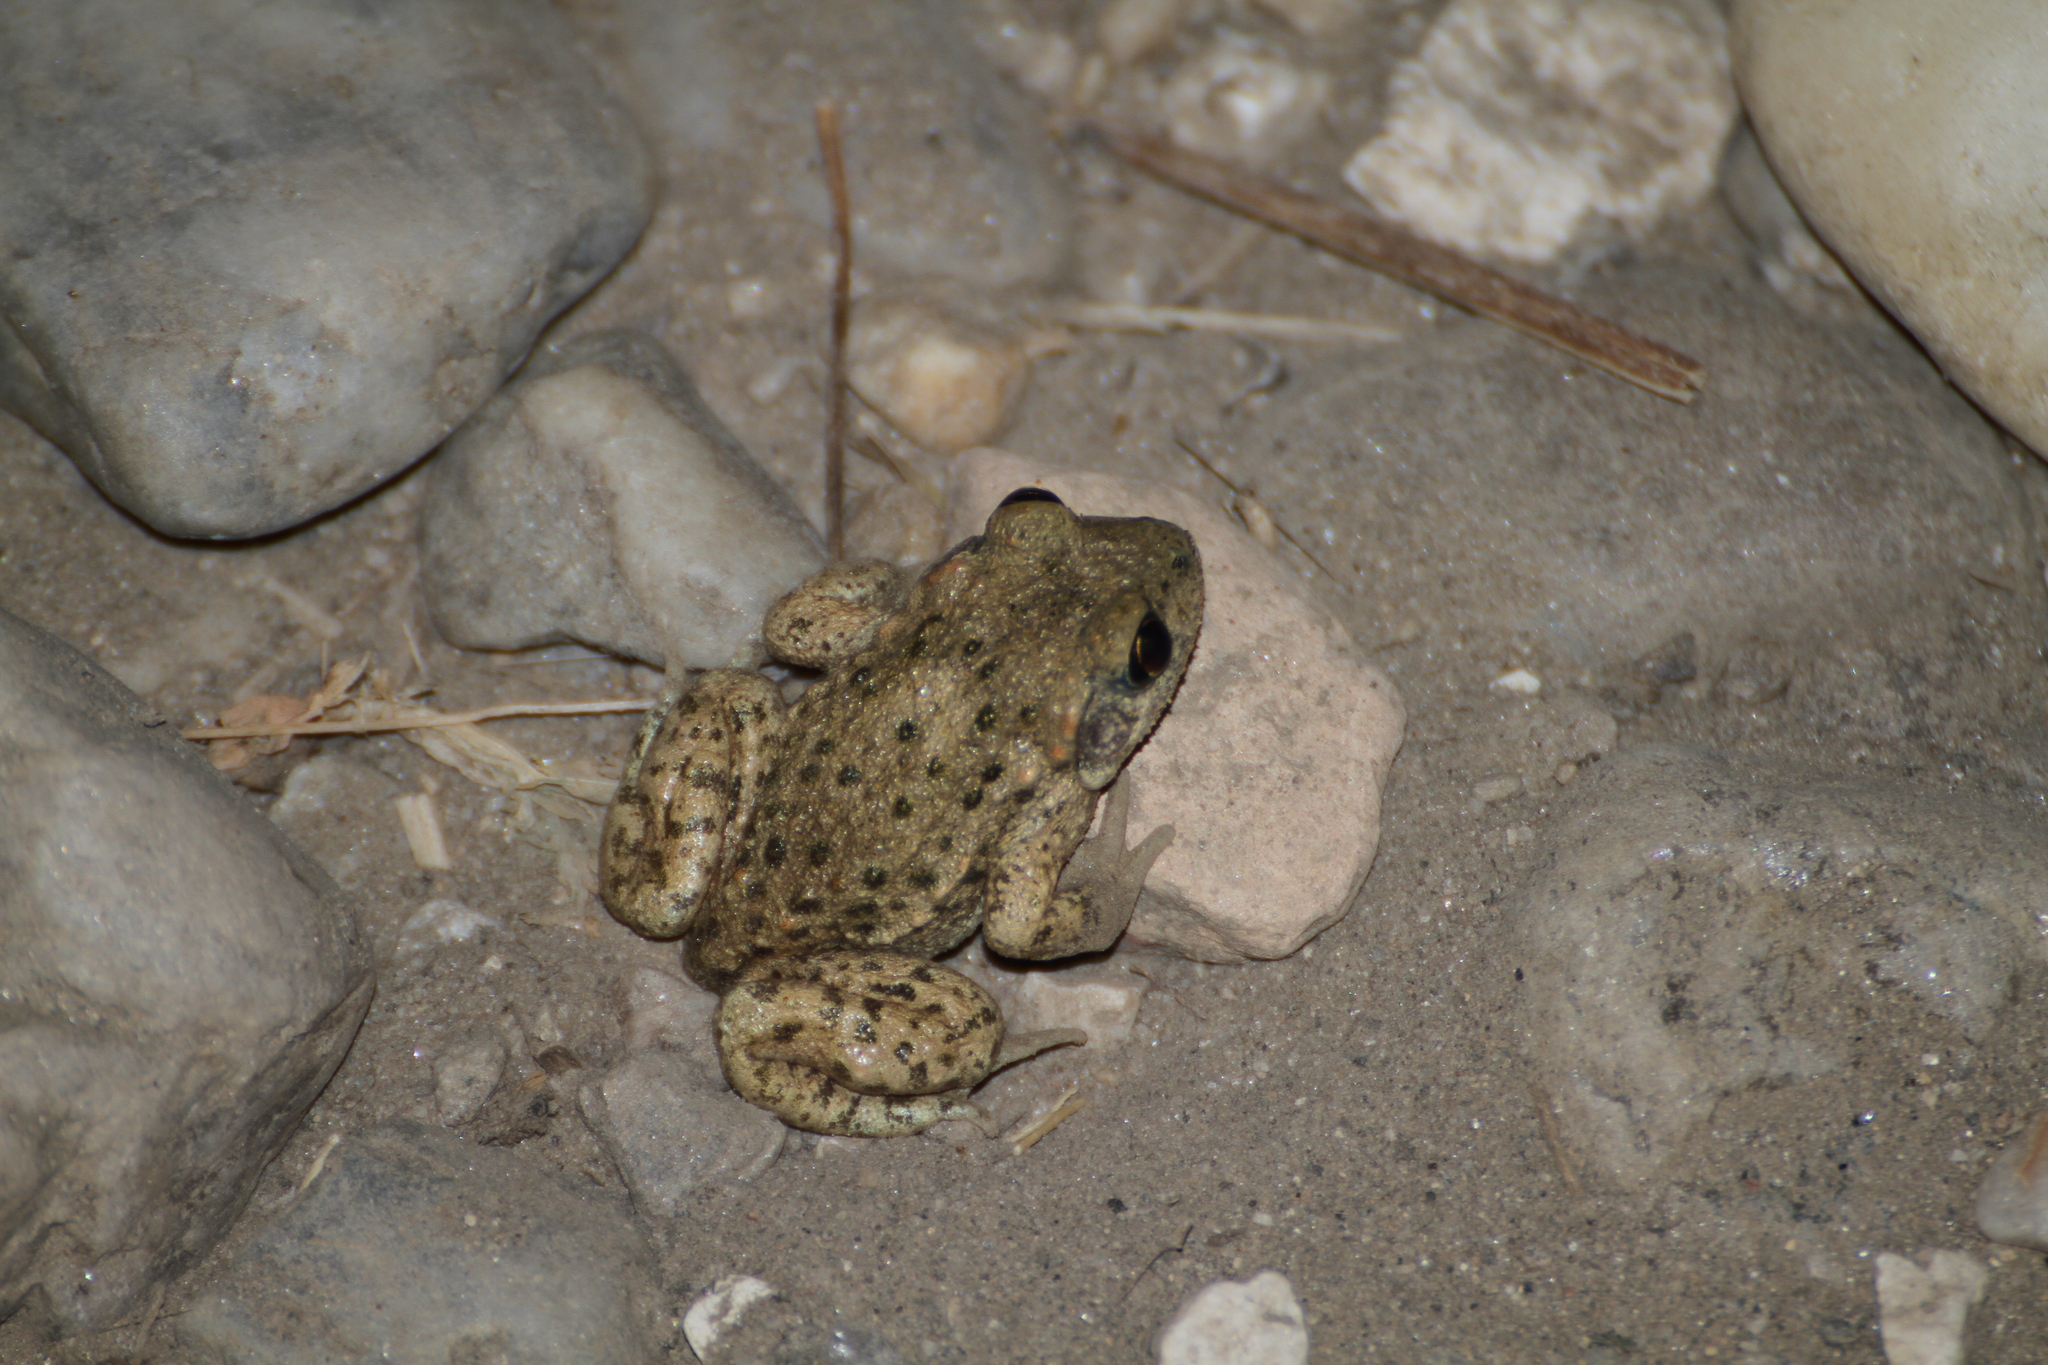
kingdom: Animalia
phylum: Chordata
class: Amphibia
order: Anura
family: Alytidae
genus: Alytes
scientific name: Alytes obstetricans
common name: Midwife toad
